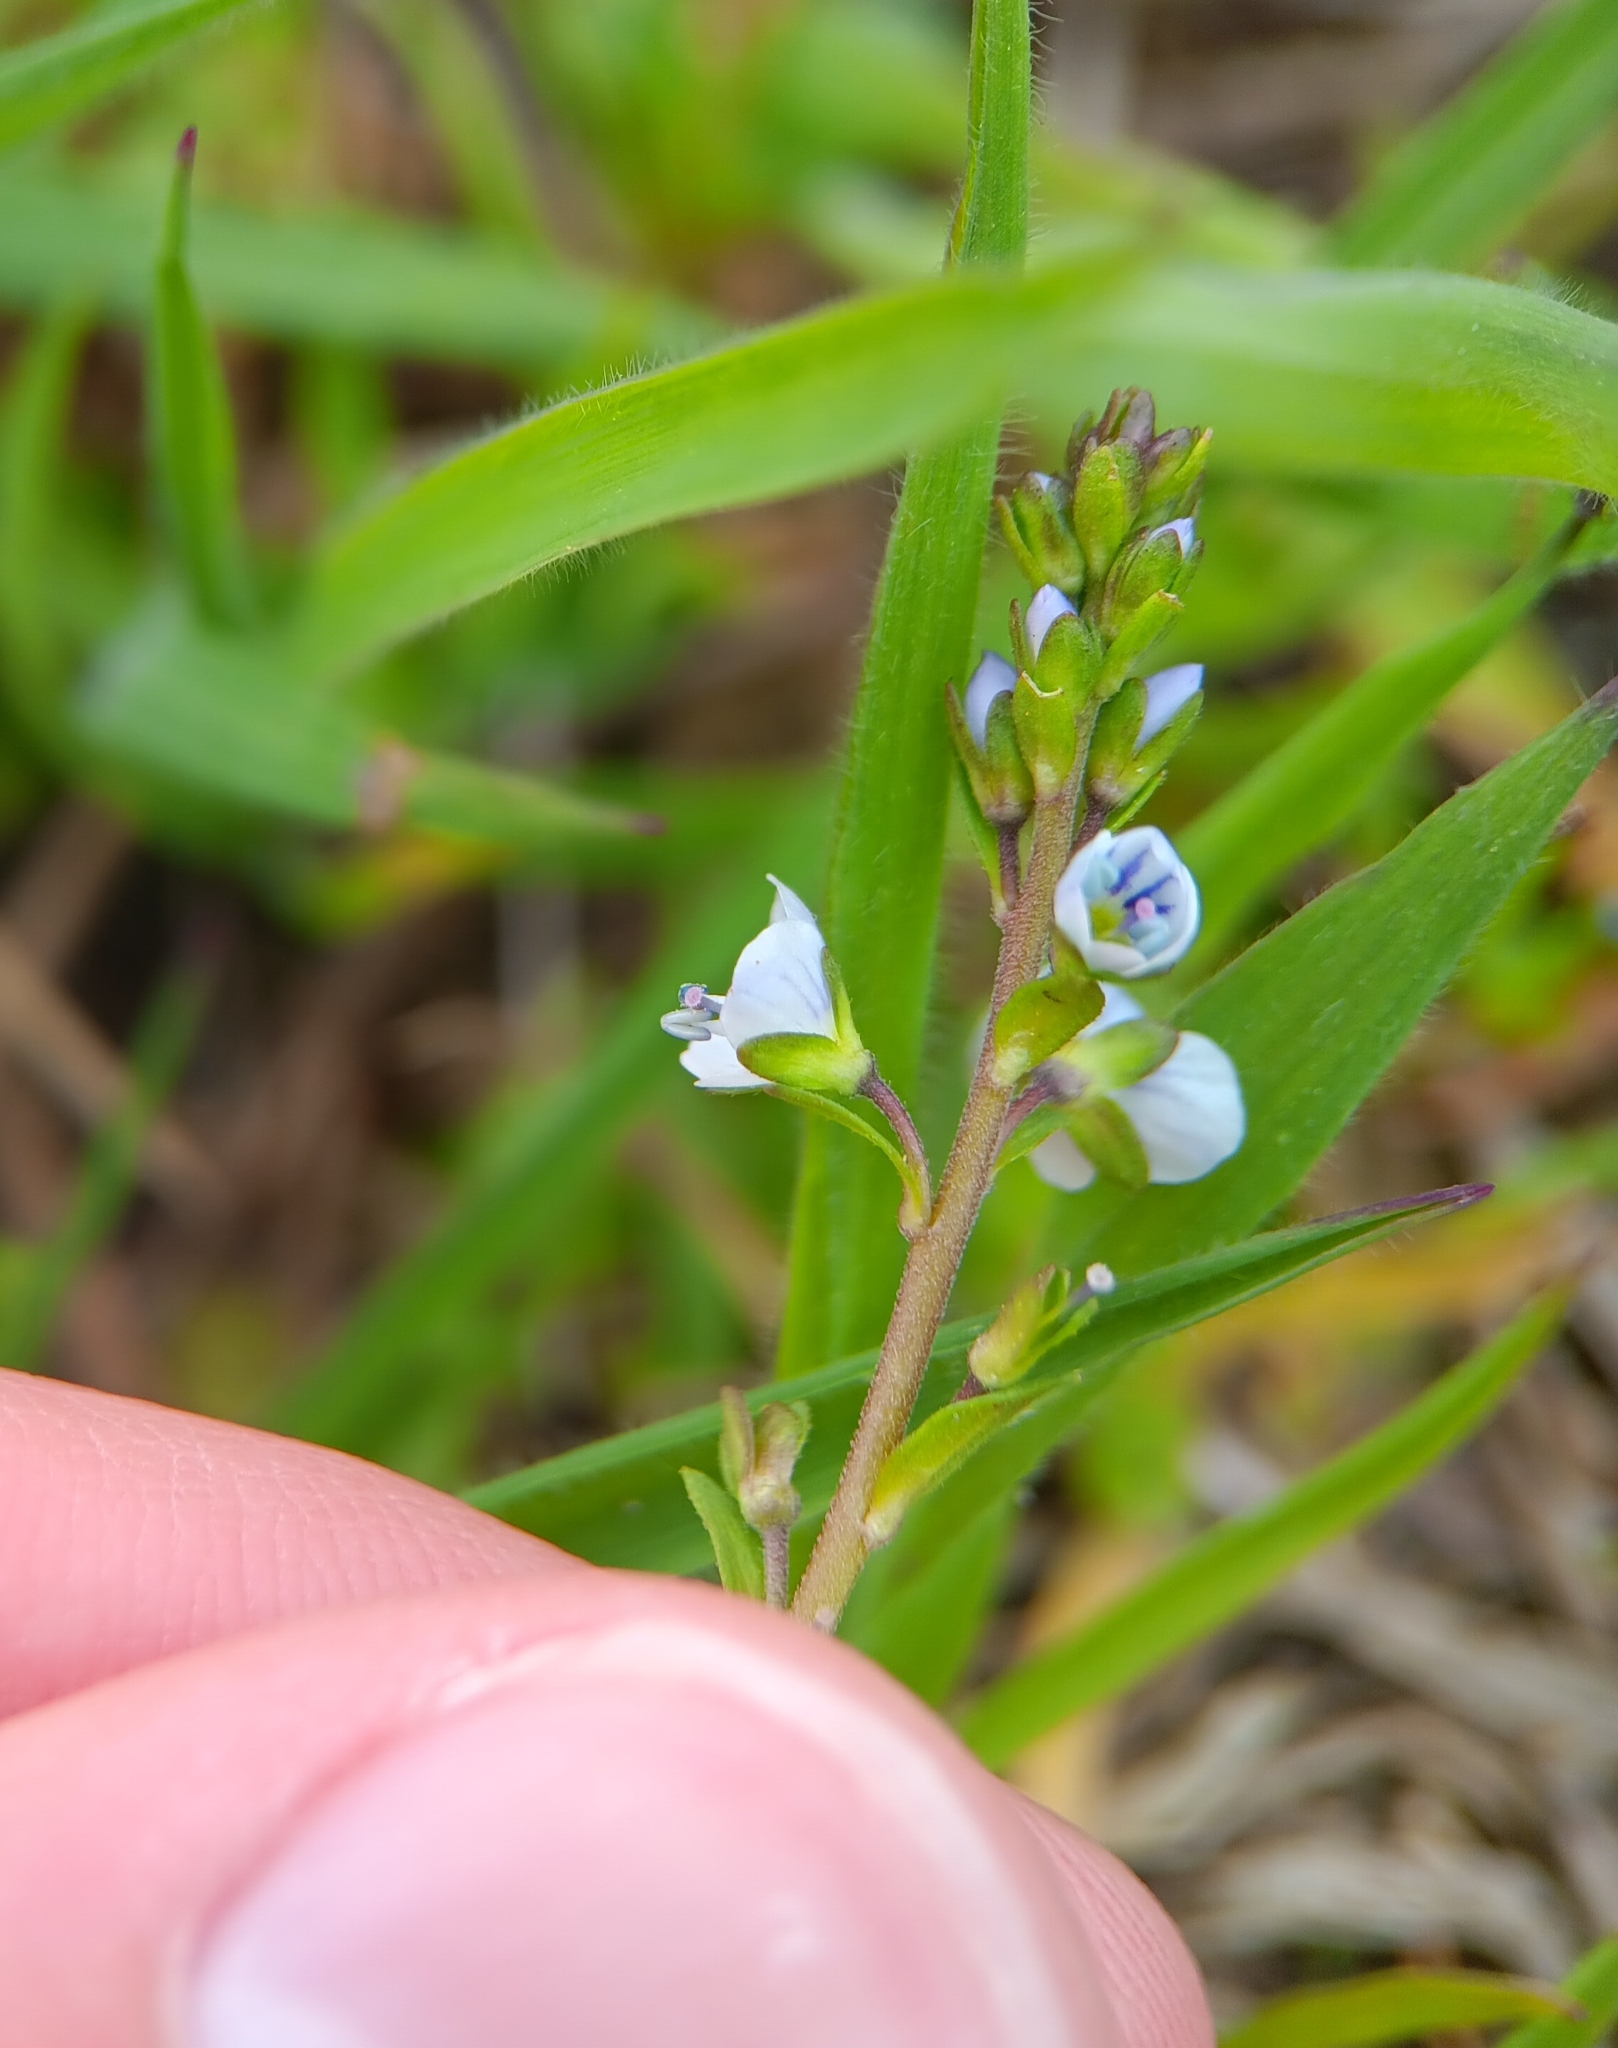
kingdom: Plantae
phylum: Tracheophyta
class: Magnoliopsida
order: Lamiales
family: Plantaginaceae
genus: Veronica
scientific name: Veronica serpyllifolia
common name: Thyme-leaved speedwell
